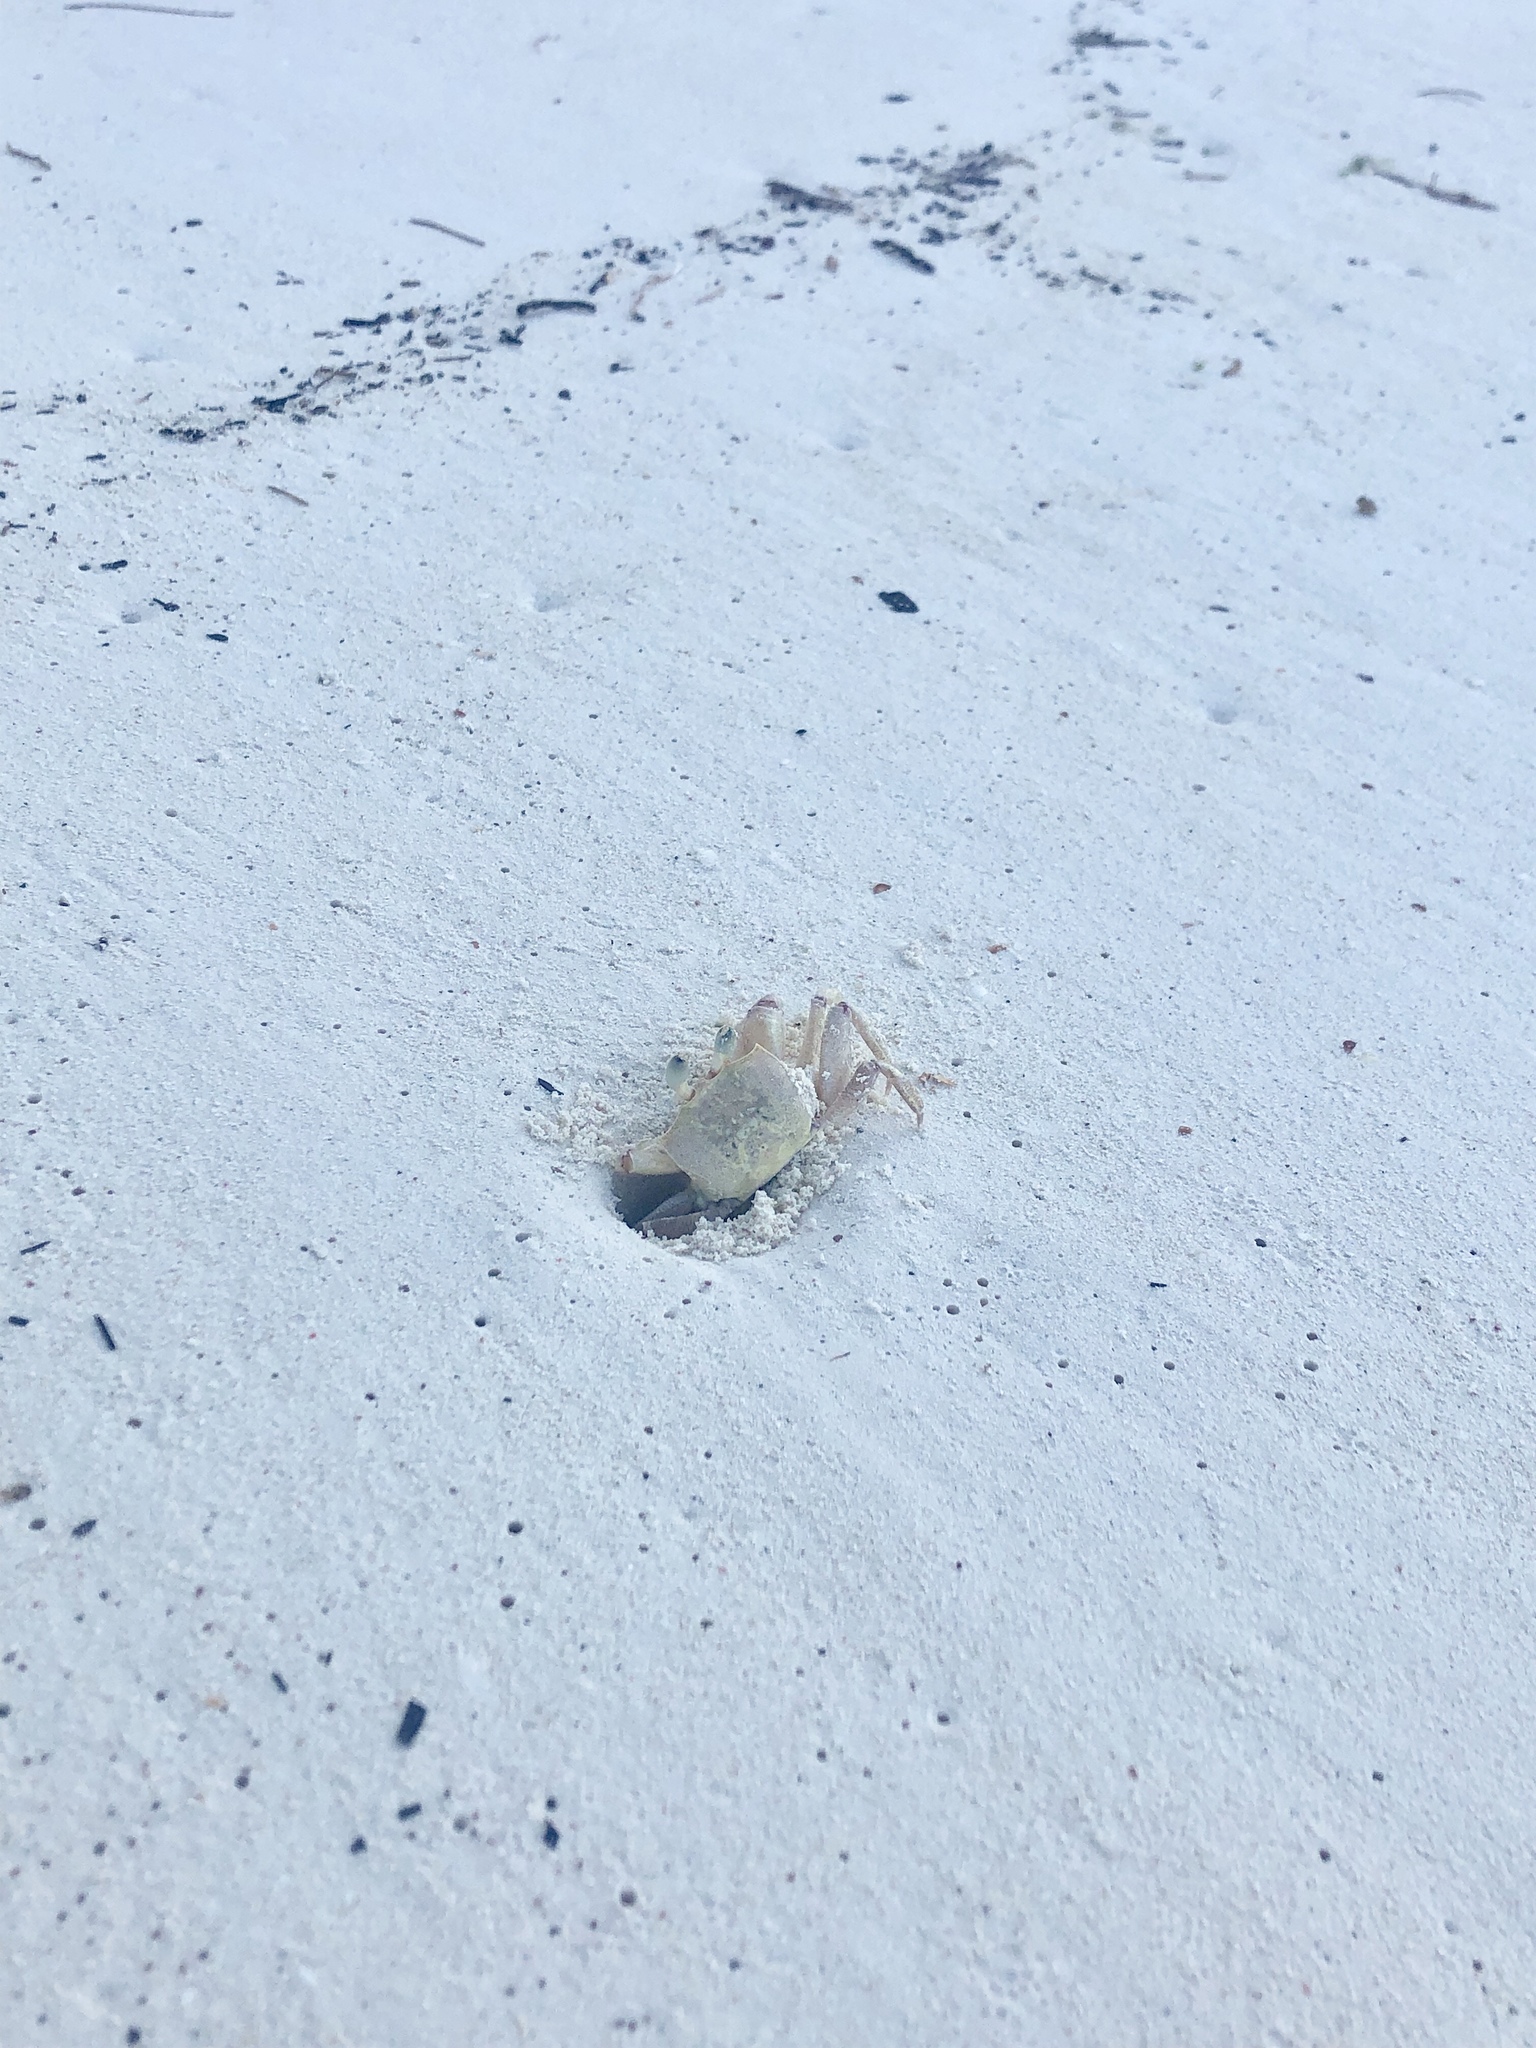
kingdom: Animalia
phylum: Arthropoda
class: Malacostraca
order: Decapoda
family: Ocypodidae
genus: Ocypode
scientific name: Ocypode ryderi
